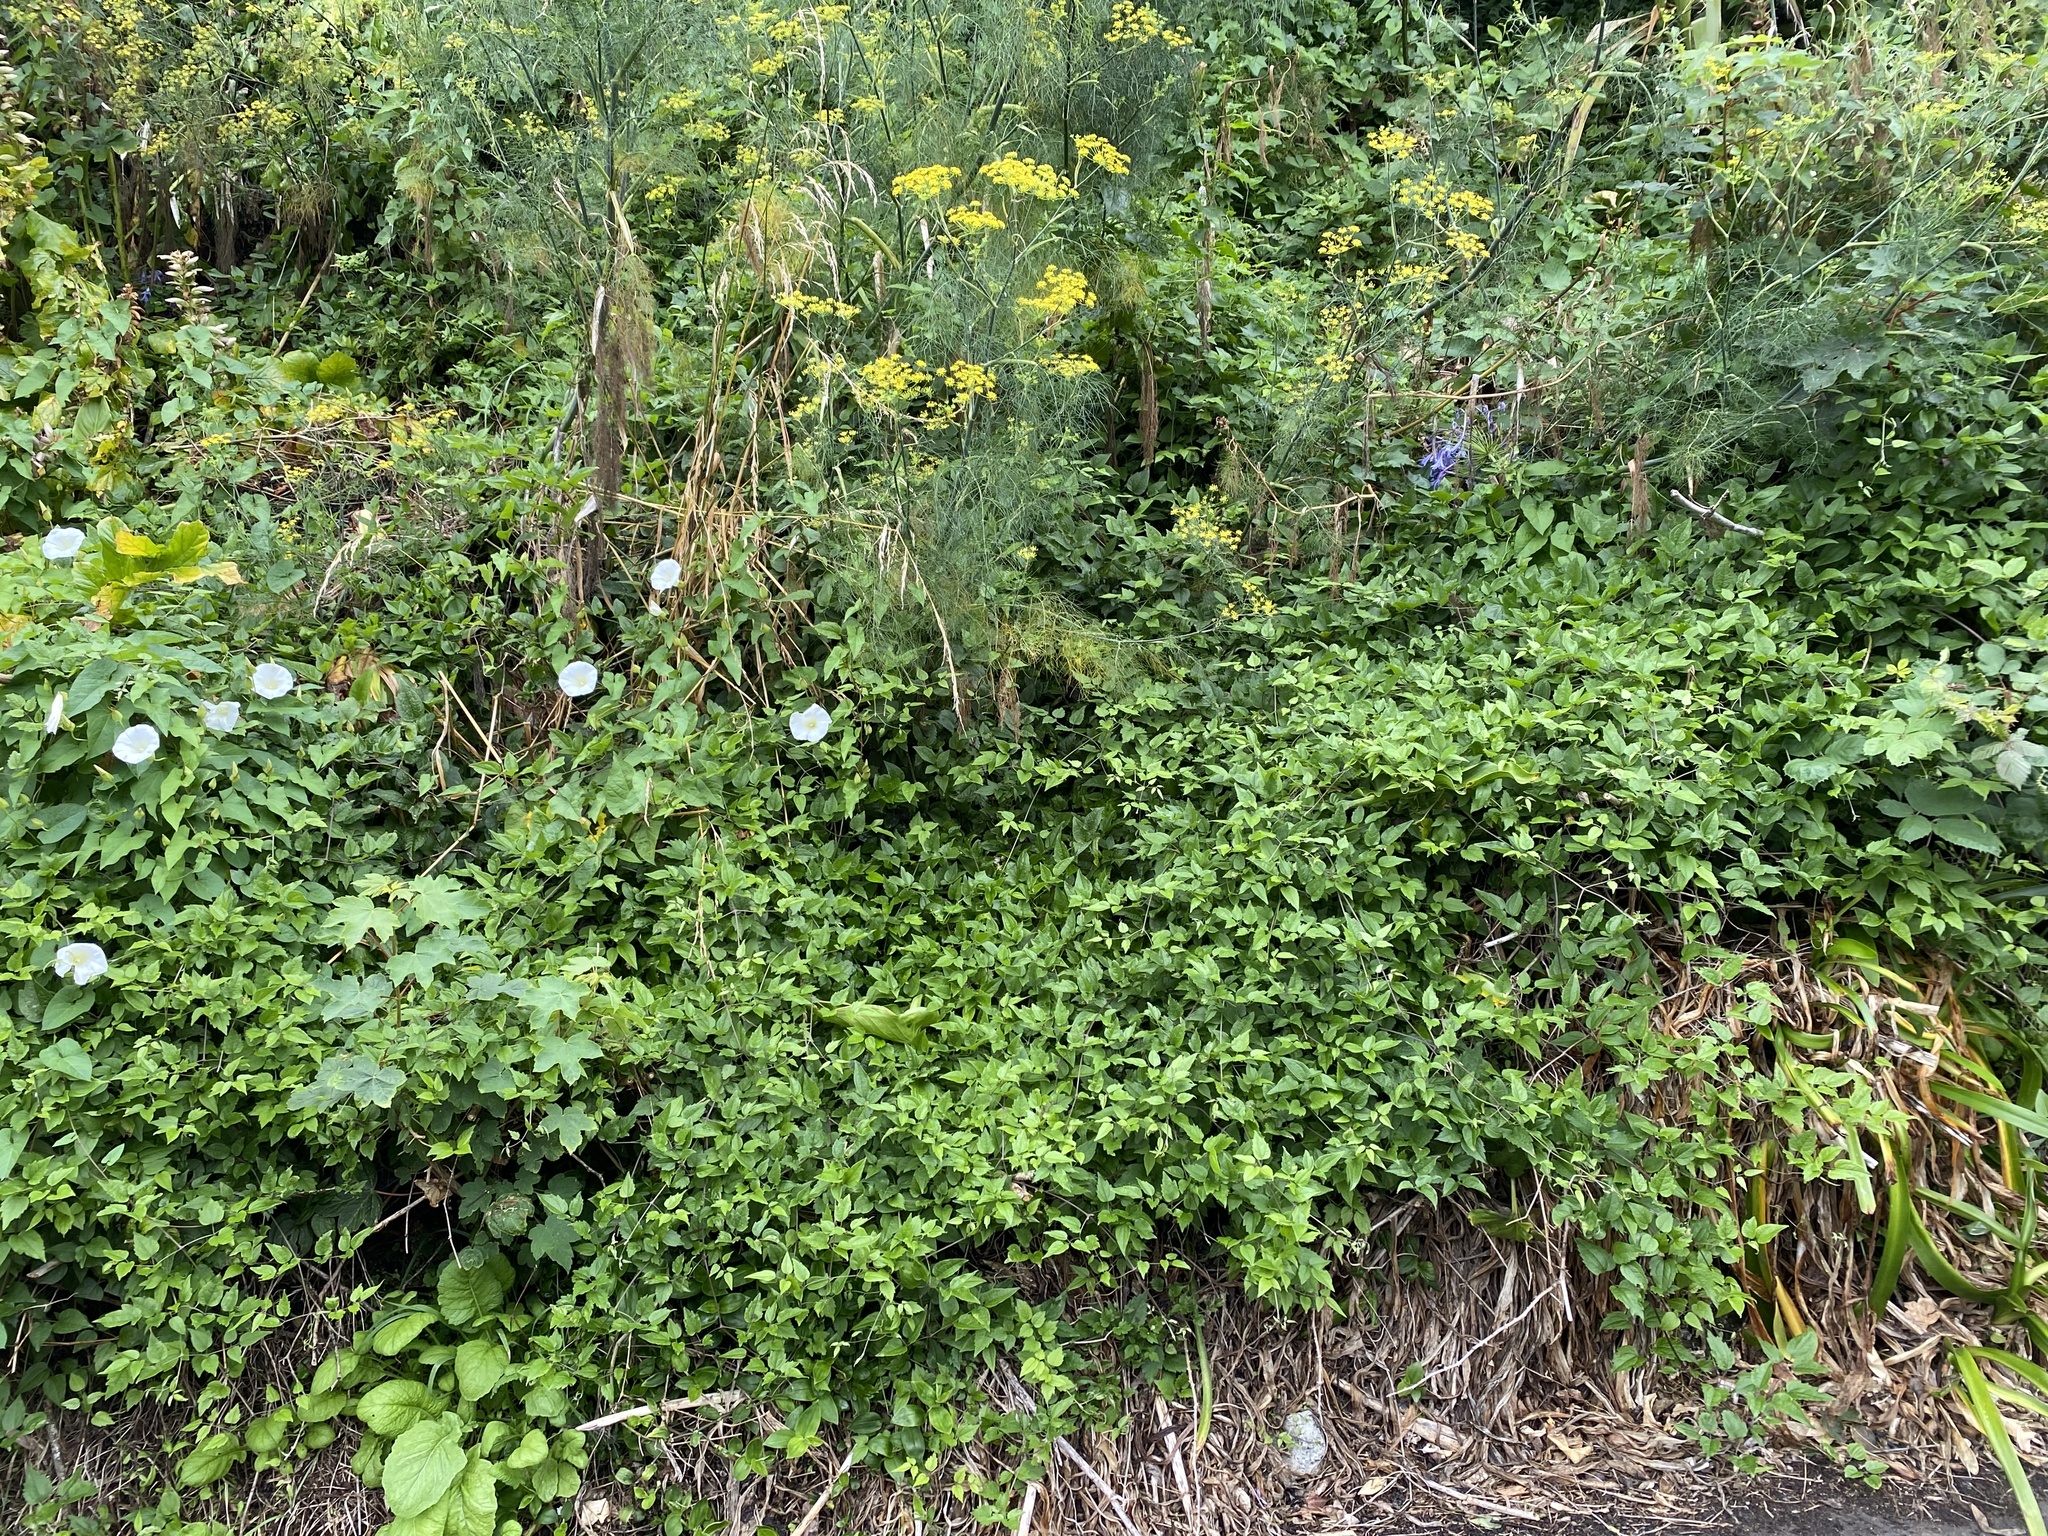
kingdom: Plantae
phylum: Tracheophyta
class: Magnoliopsida
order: Ranunculales
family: Ranunculaceae
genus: Clematis
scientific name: Clematis vitalba
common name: Evergreen clematis
